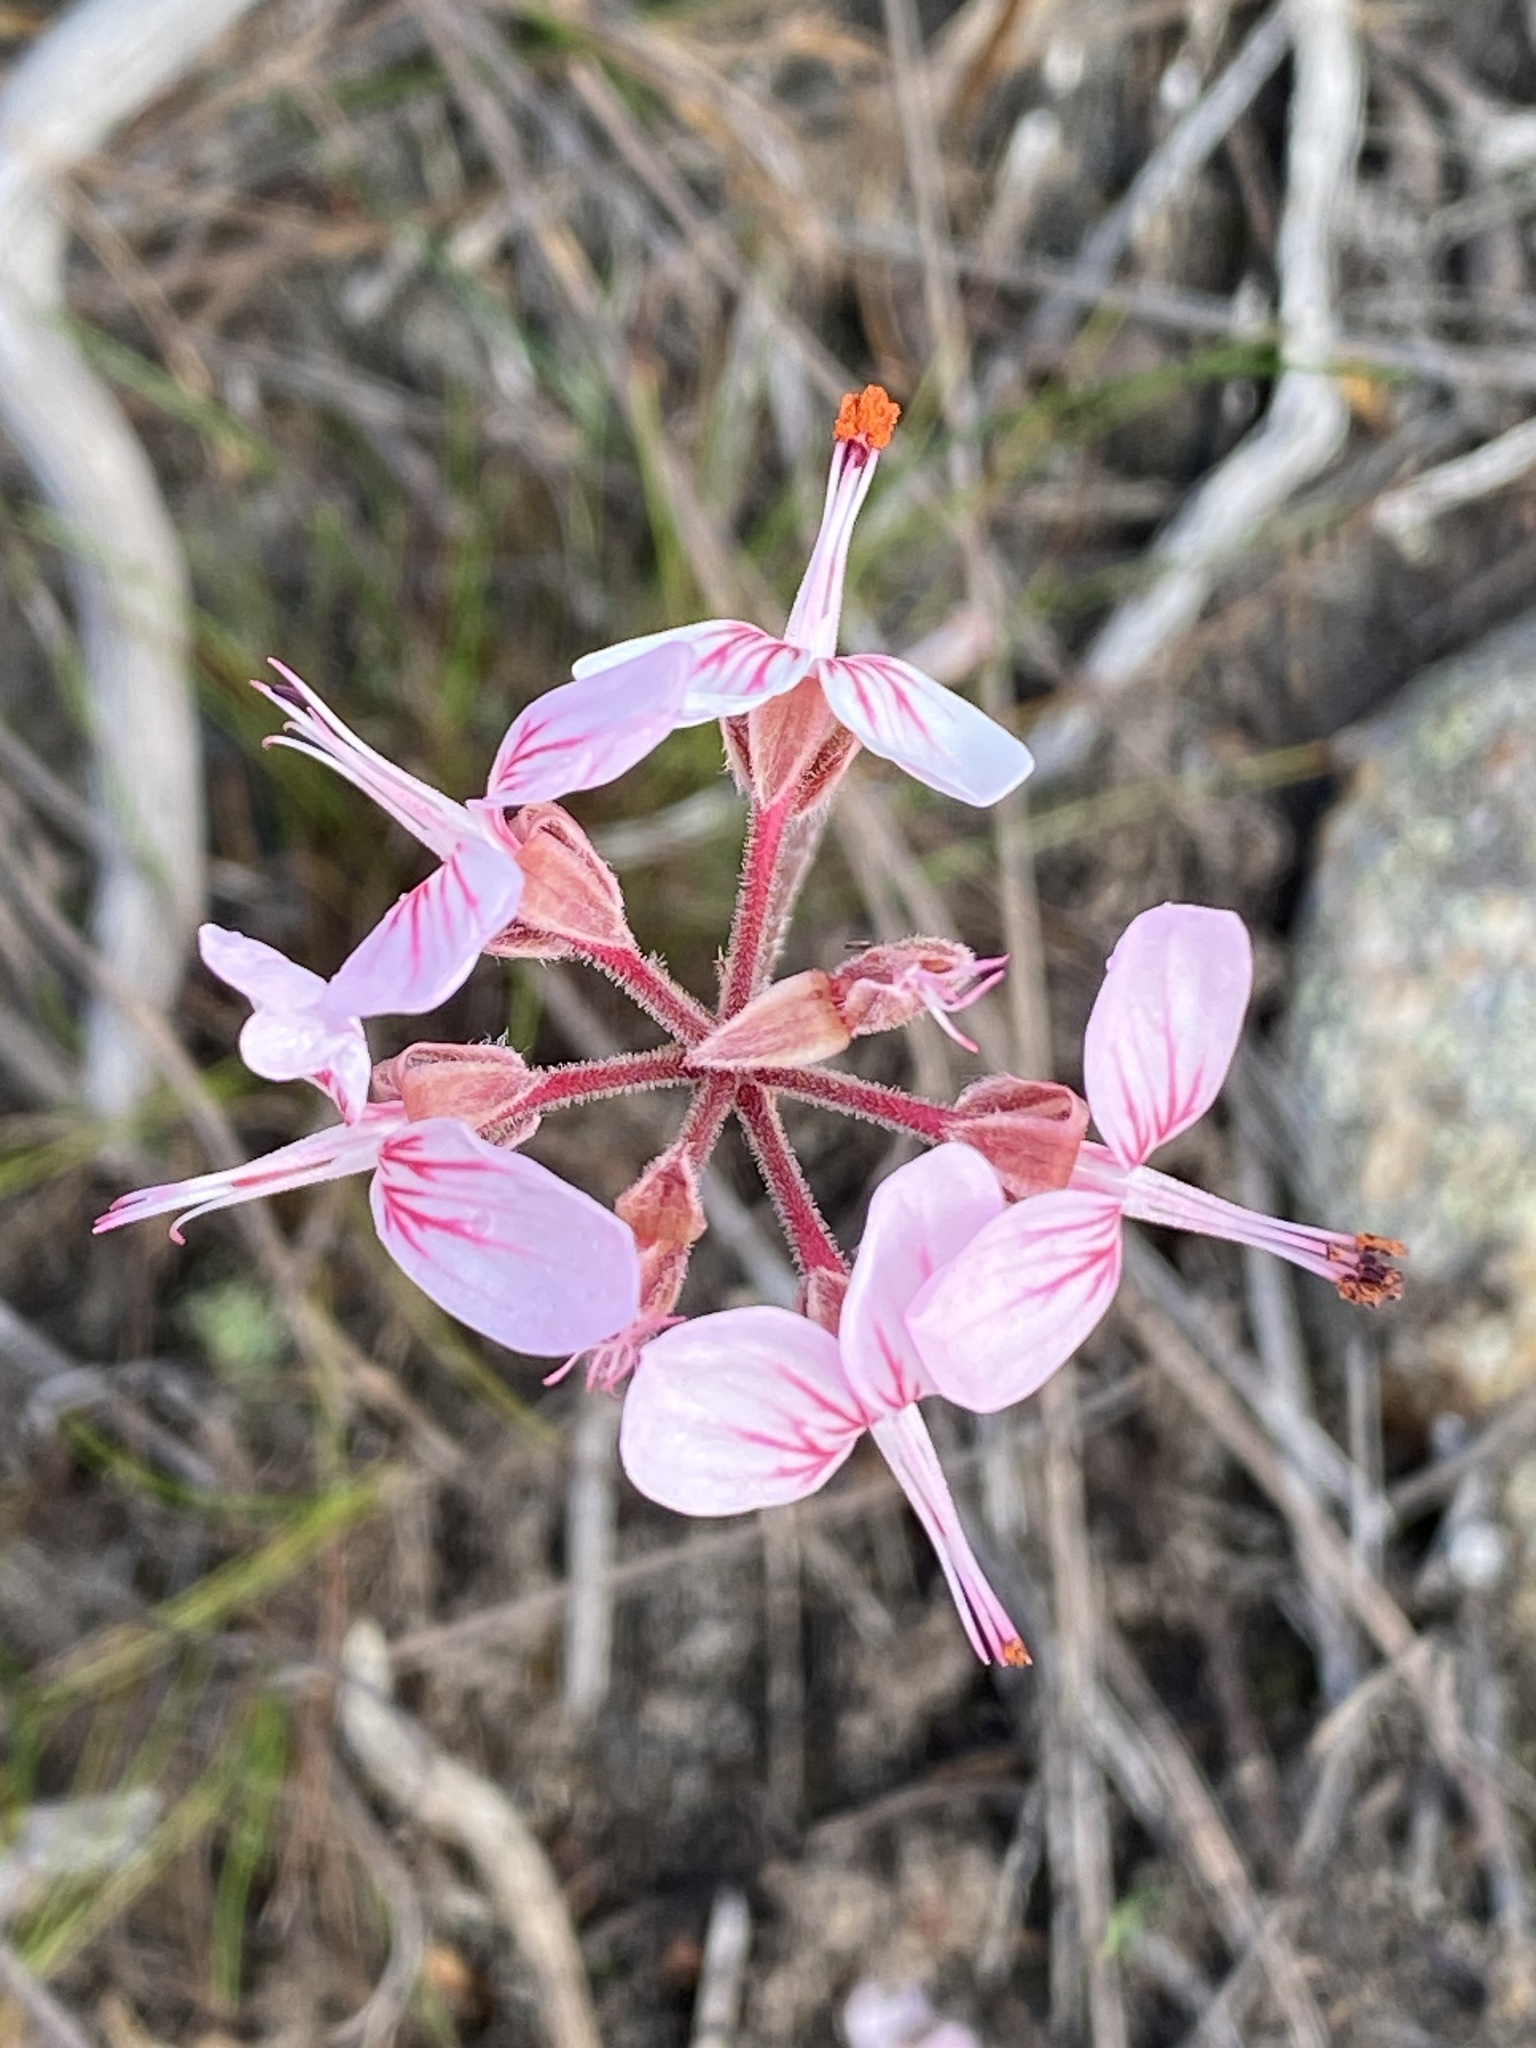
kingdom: Plantae
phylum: Tracheophyta
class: Magnoliopsida
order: Geraniales
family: Geraniaceae
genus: Pelargonium
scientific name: Pelargonium dipetalum
